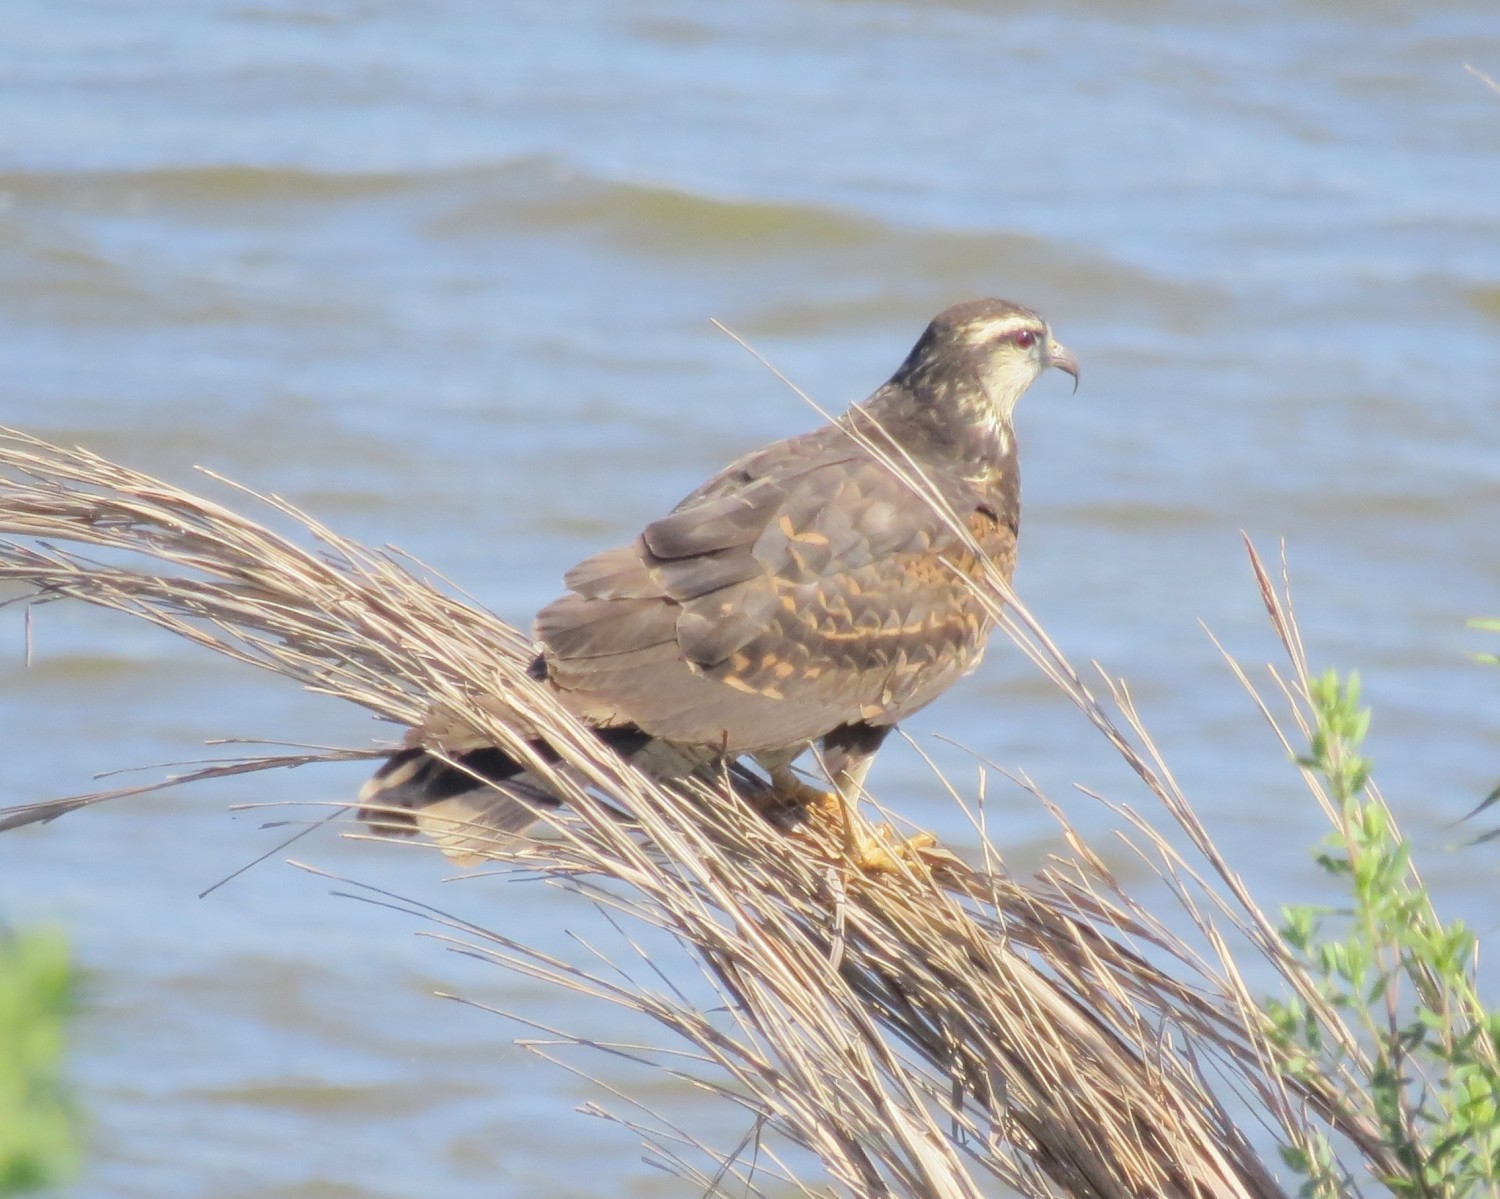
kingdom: Animalia
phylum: Chordata
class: Aves
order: Accipitriformes
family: Accipitridae
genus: Rostrhamus
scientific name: Rostrhamus sociabilis
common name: Snail kite
